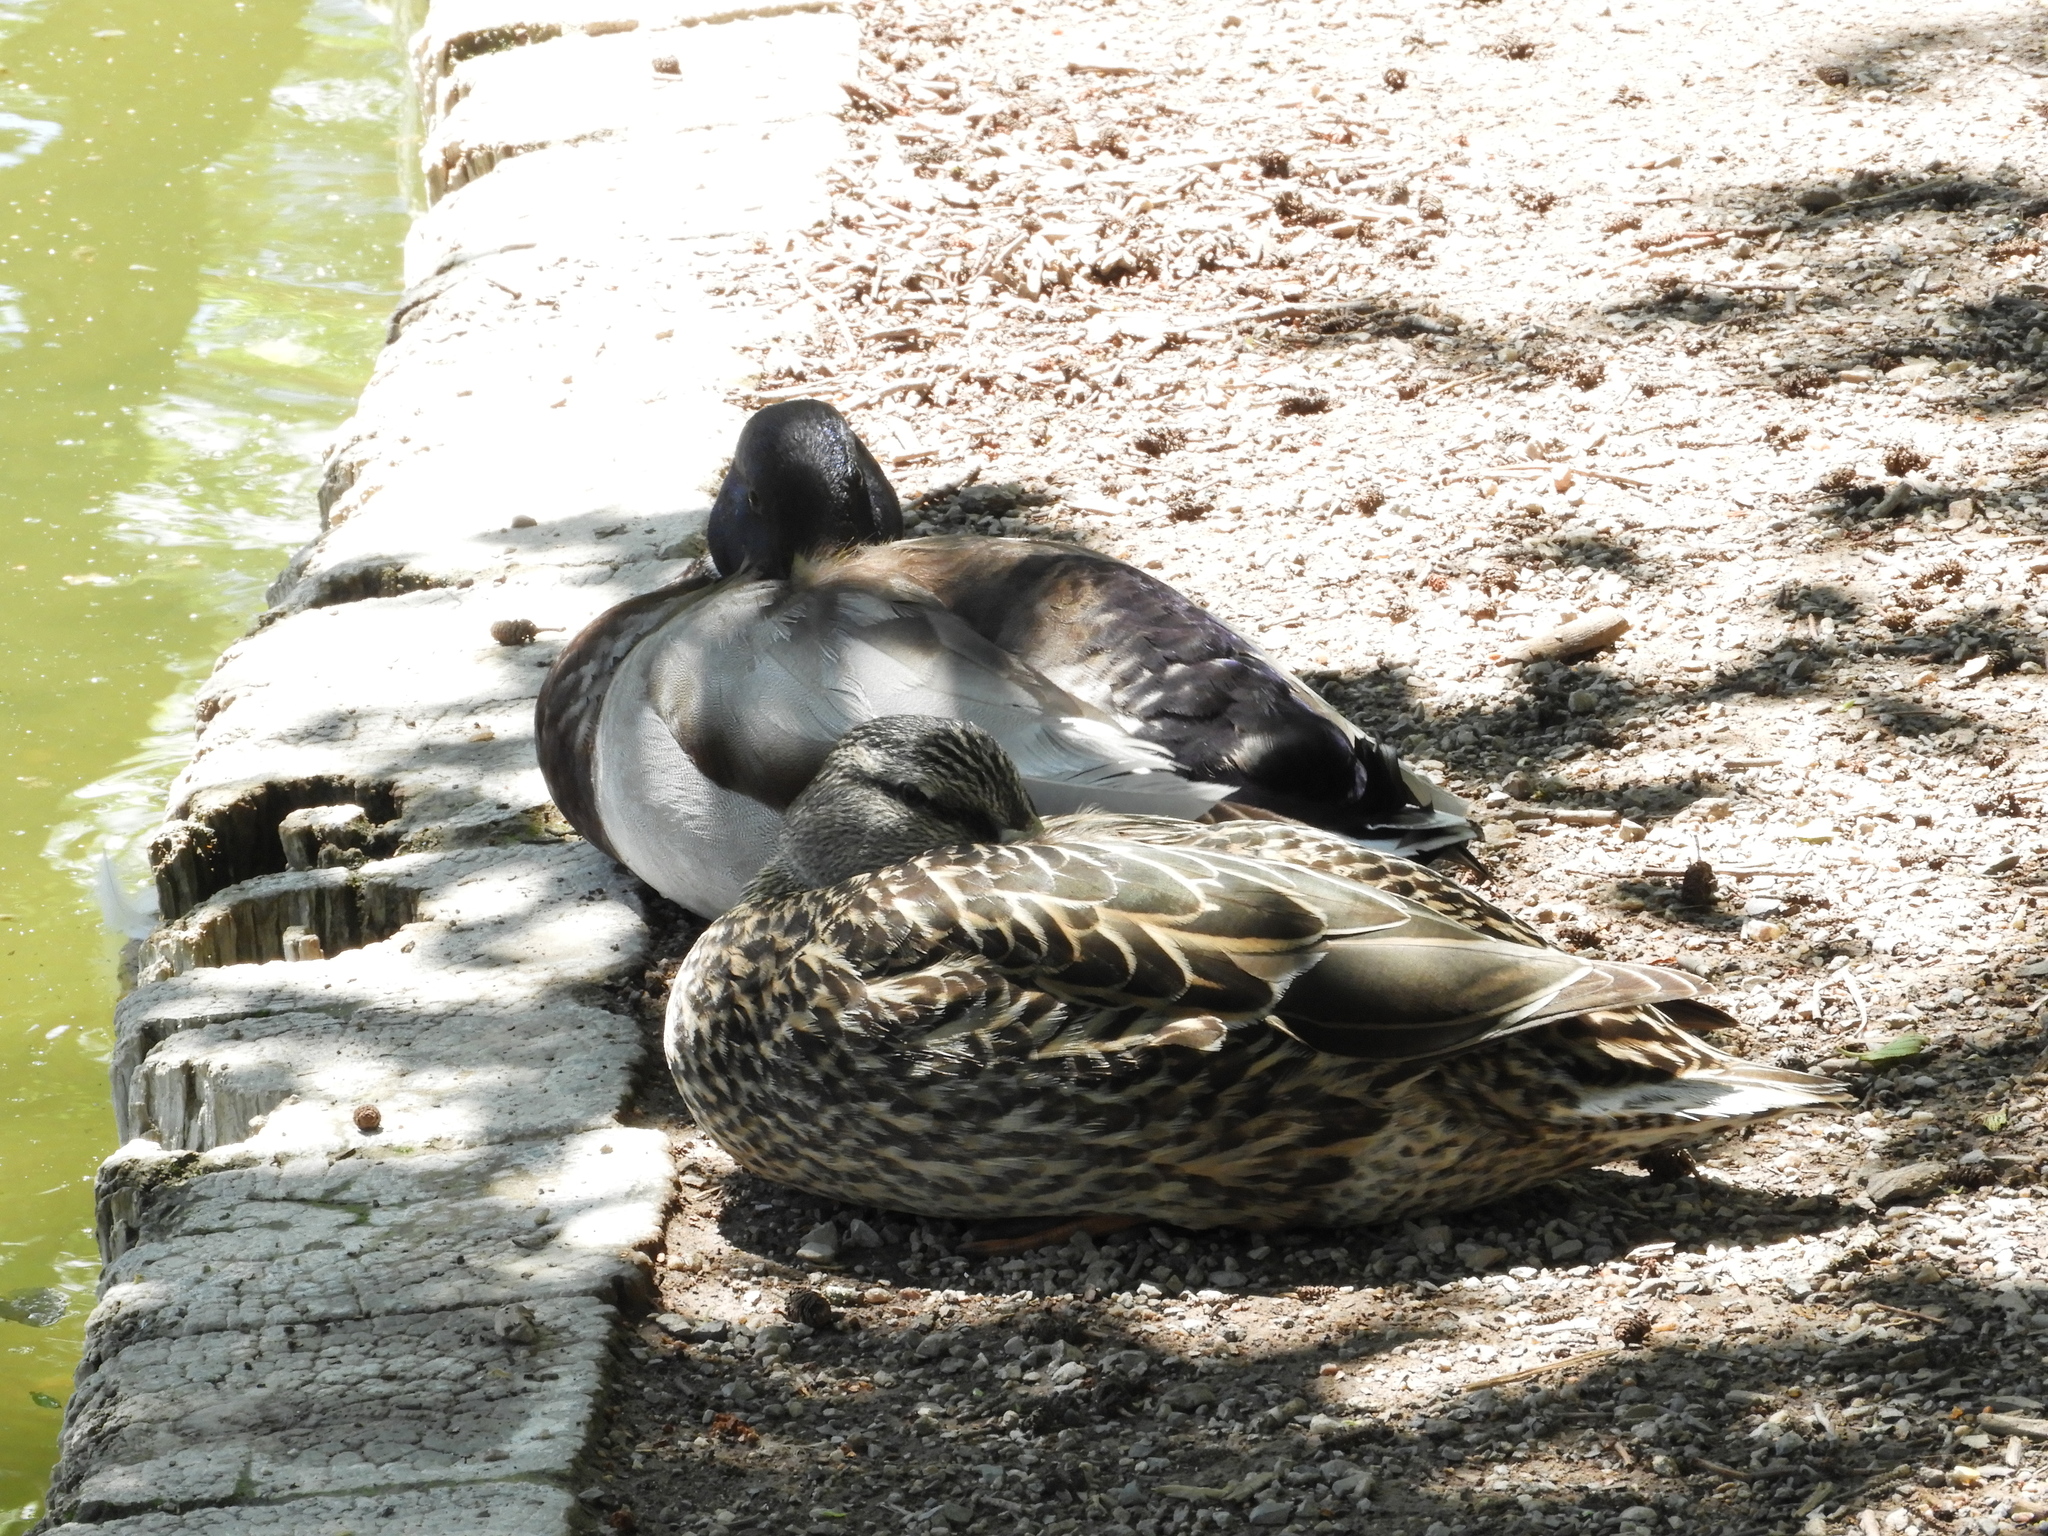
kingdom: Animalia
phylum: Chordata
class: Aves
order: Anseriformes
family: Anatidae
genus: Anas
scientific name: Anas platyrhynchos
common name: Mallard
